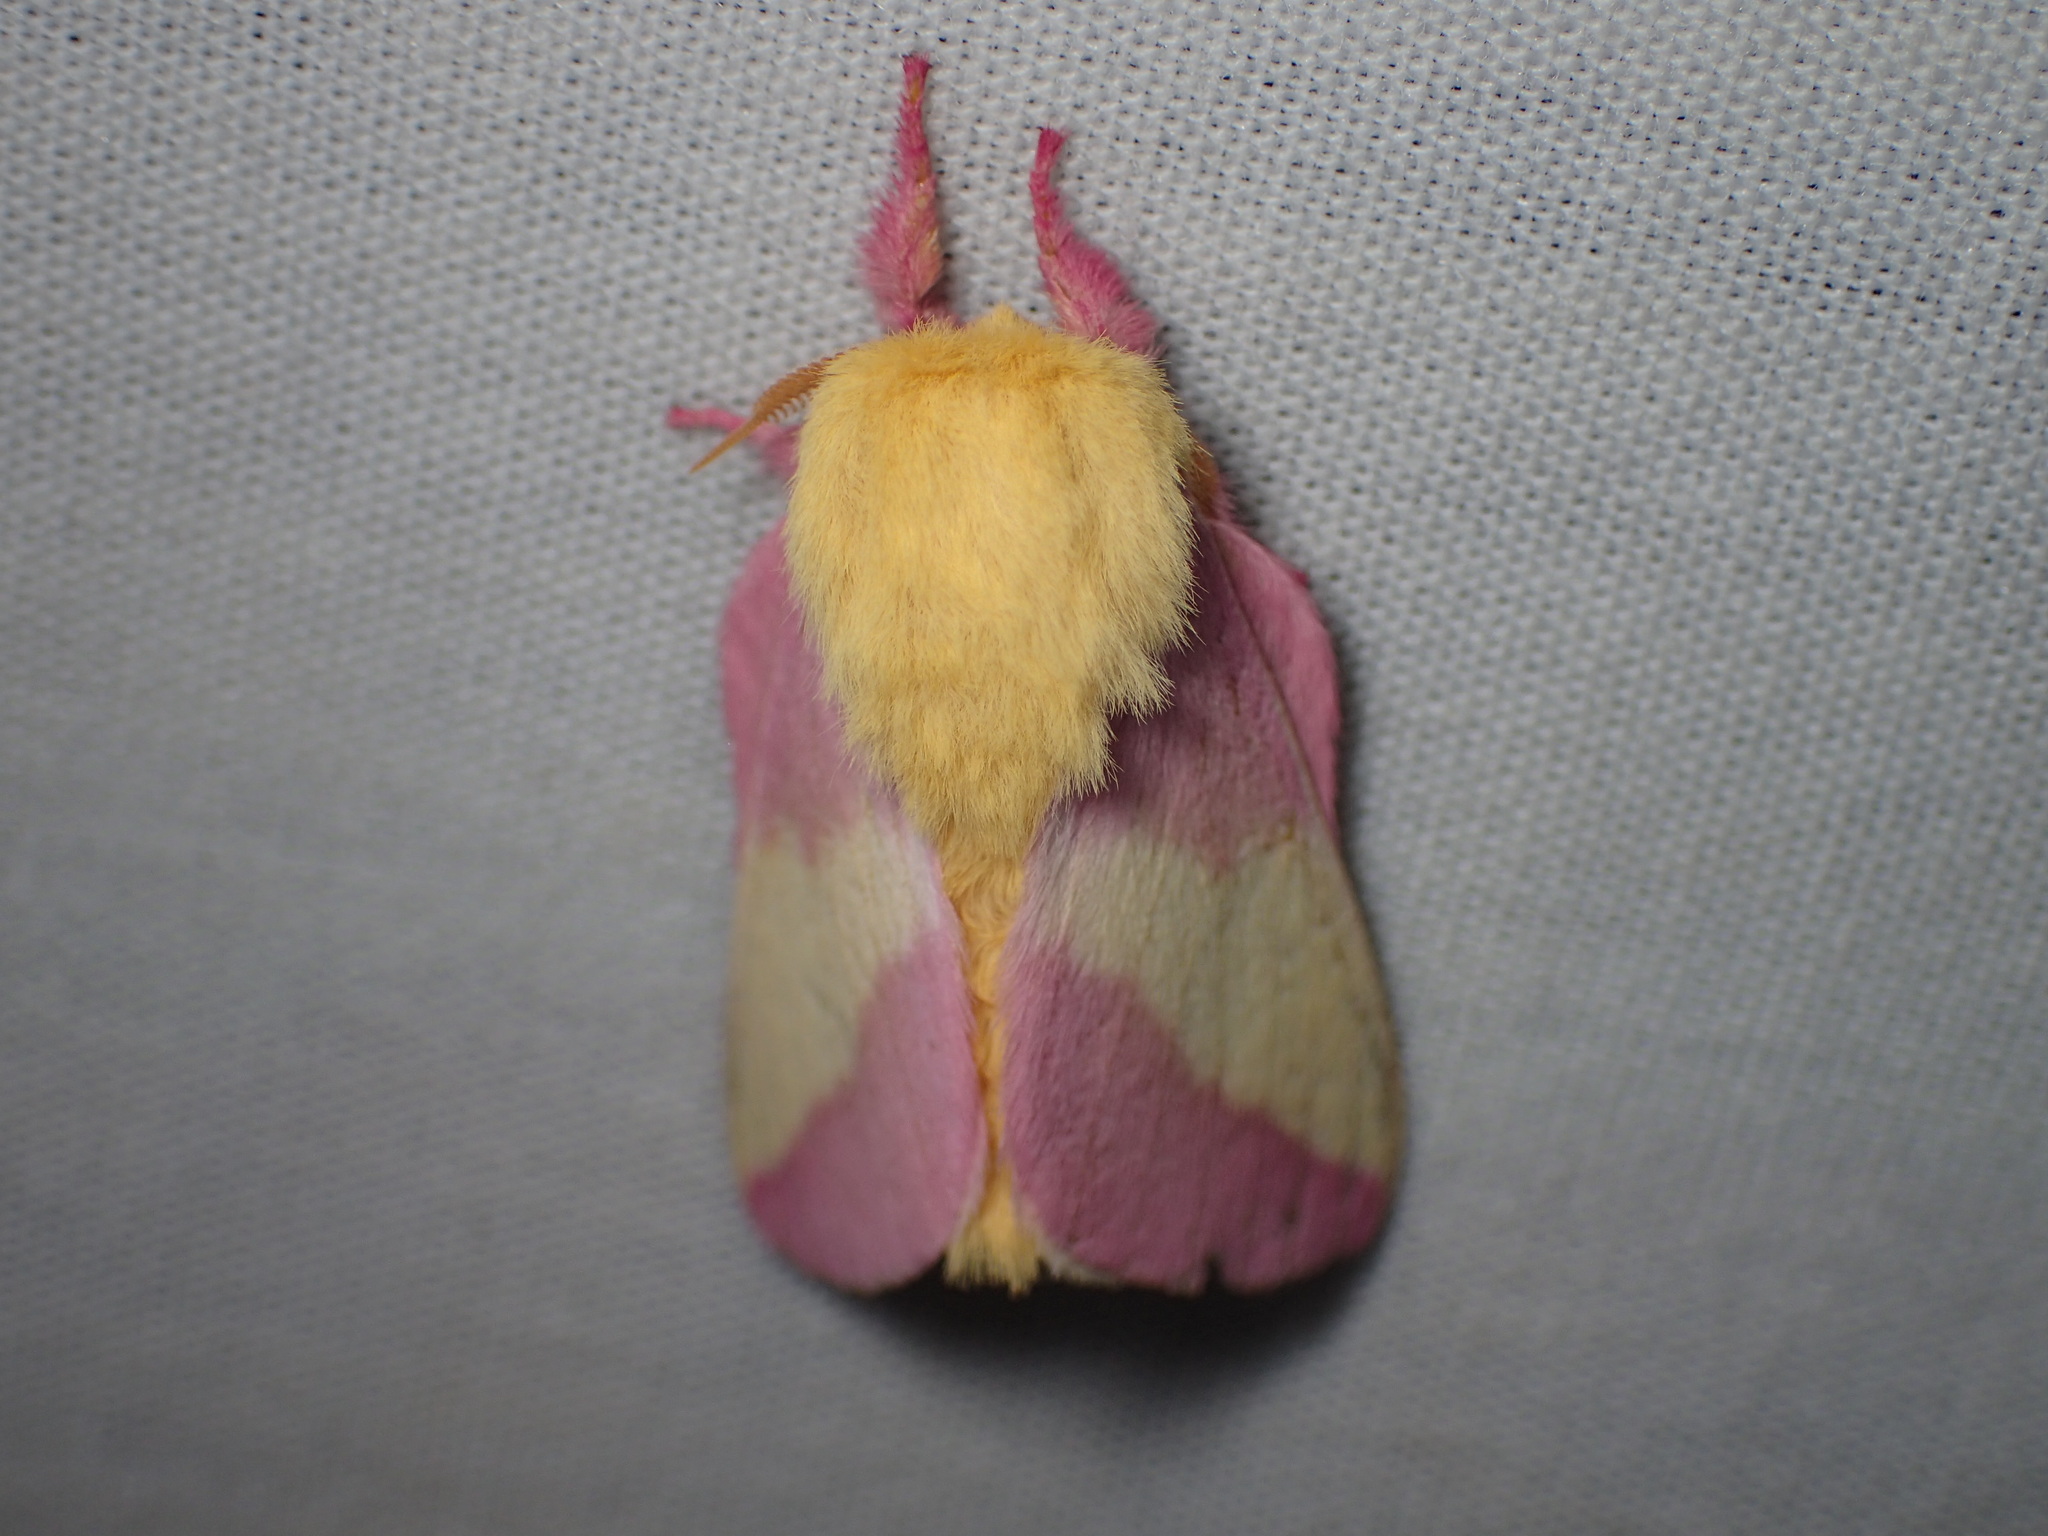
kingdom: Animalia
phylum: Arthropoda
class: Insecta
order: Lepidoptera
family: Saturniidae
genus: Dryocampa
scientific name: Dryocampa rubicunda
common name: Rosy maple moth
